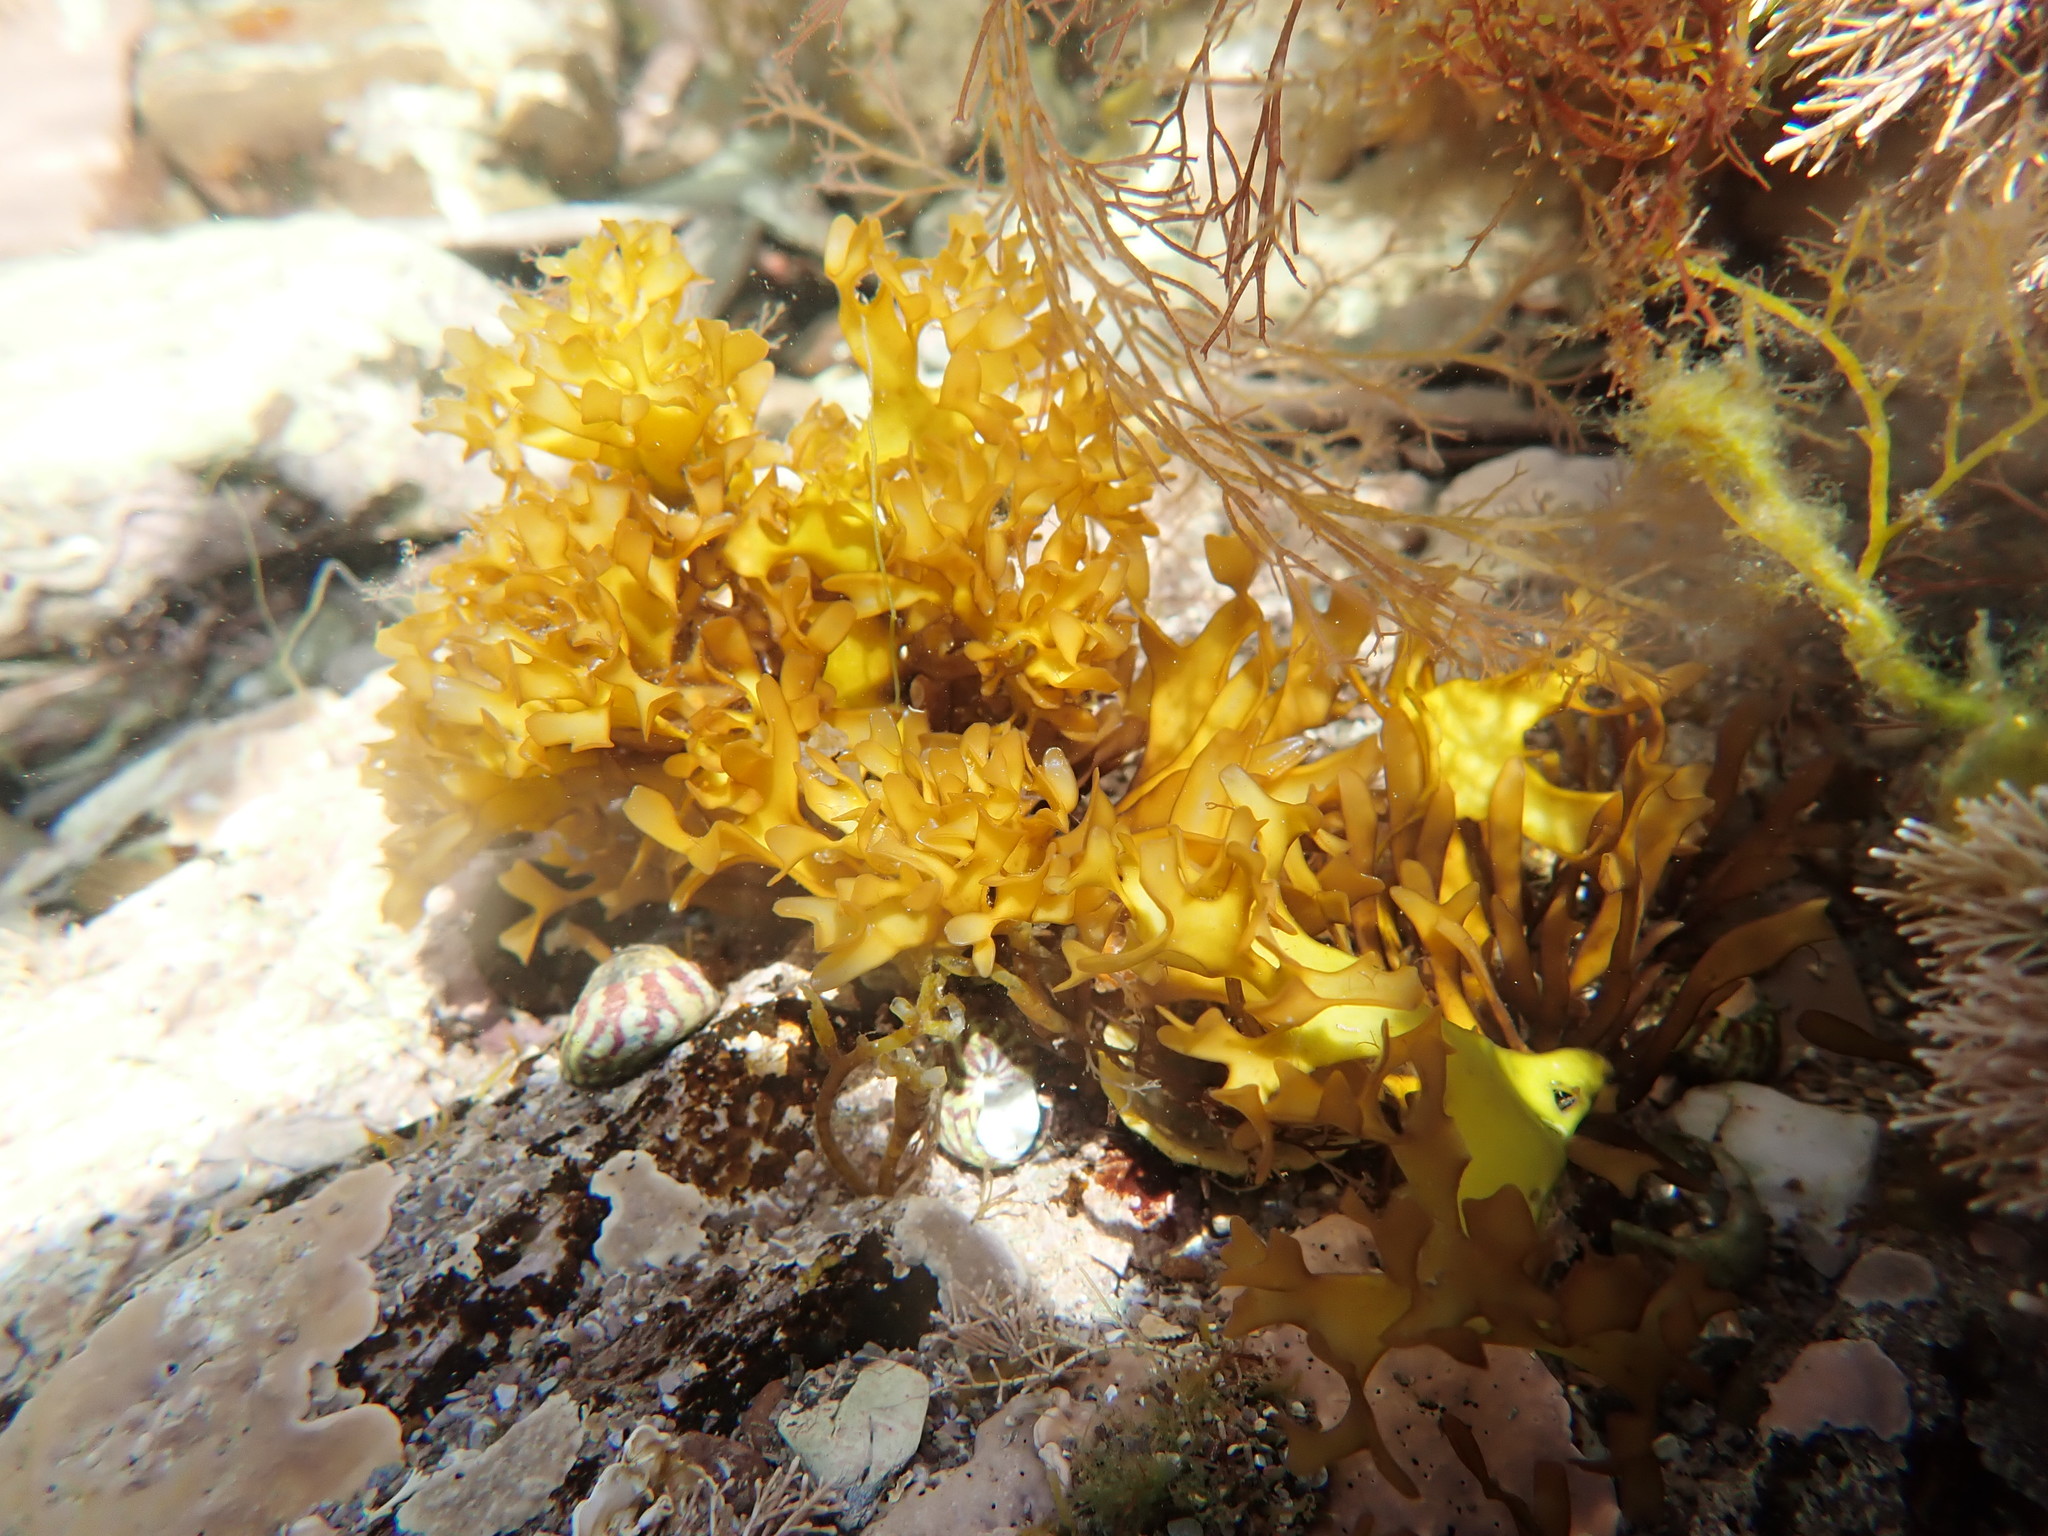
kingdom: Plantae
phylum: Rhodophyta
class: Florideophyceae
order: Gigartinales
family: Gigartinaceae
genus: Chondrus
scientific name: Chondrus crispus
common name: Carrageen
